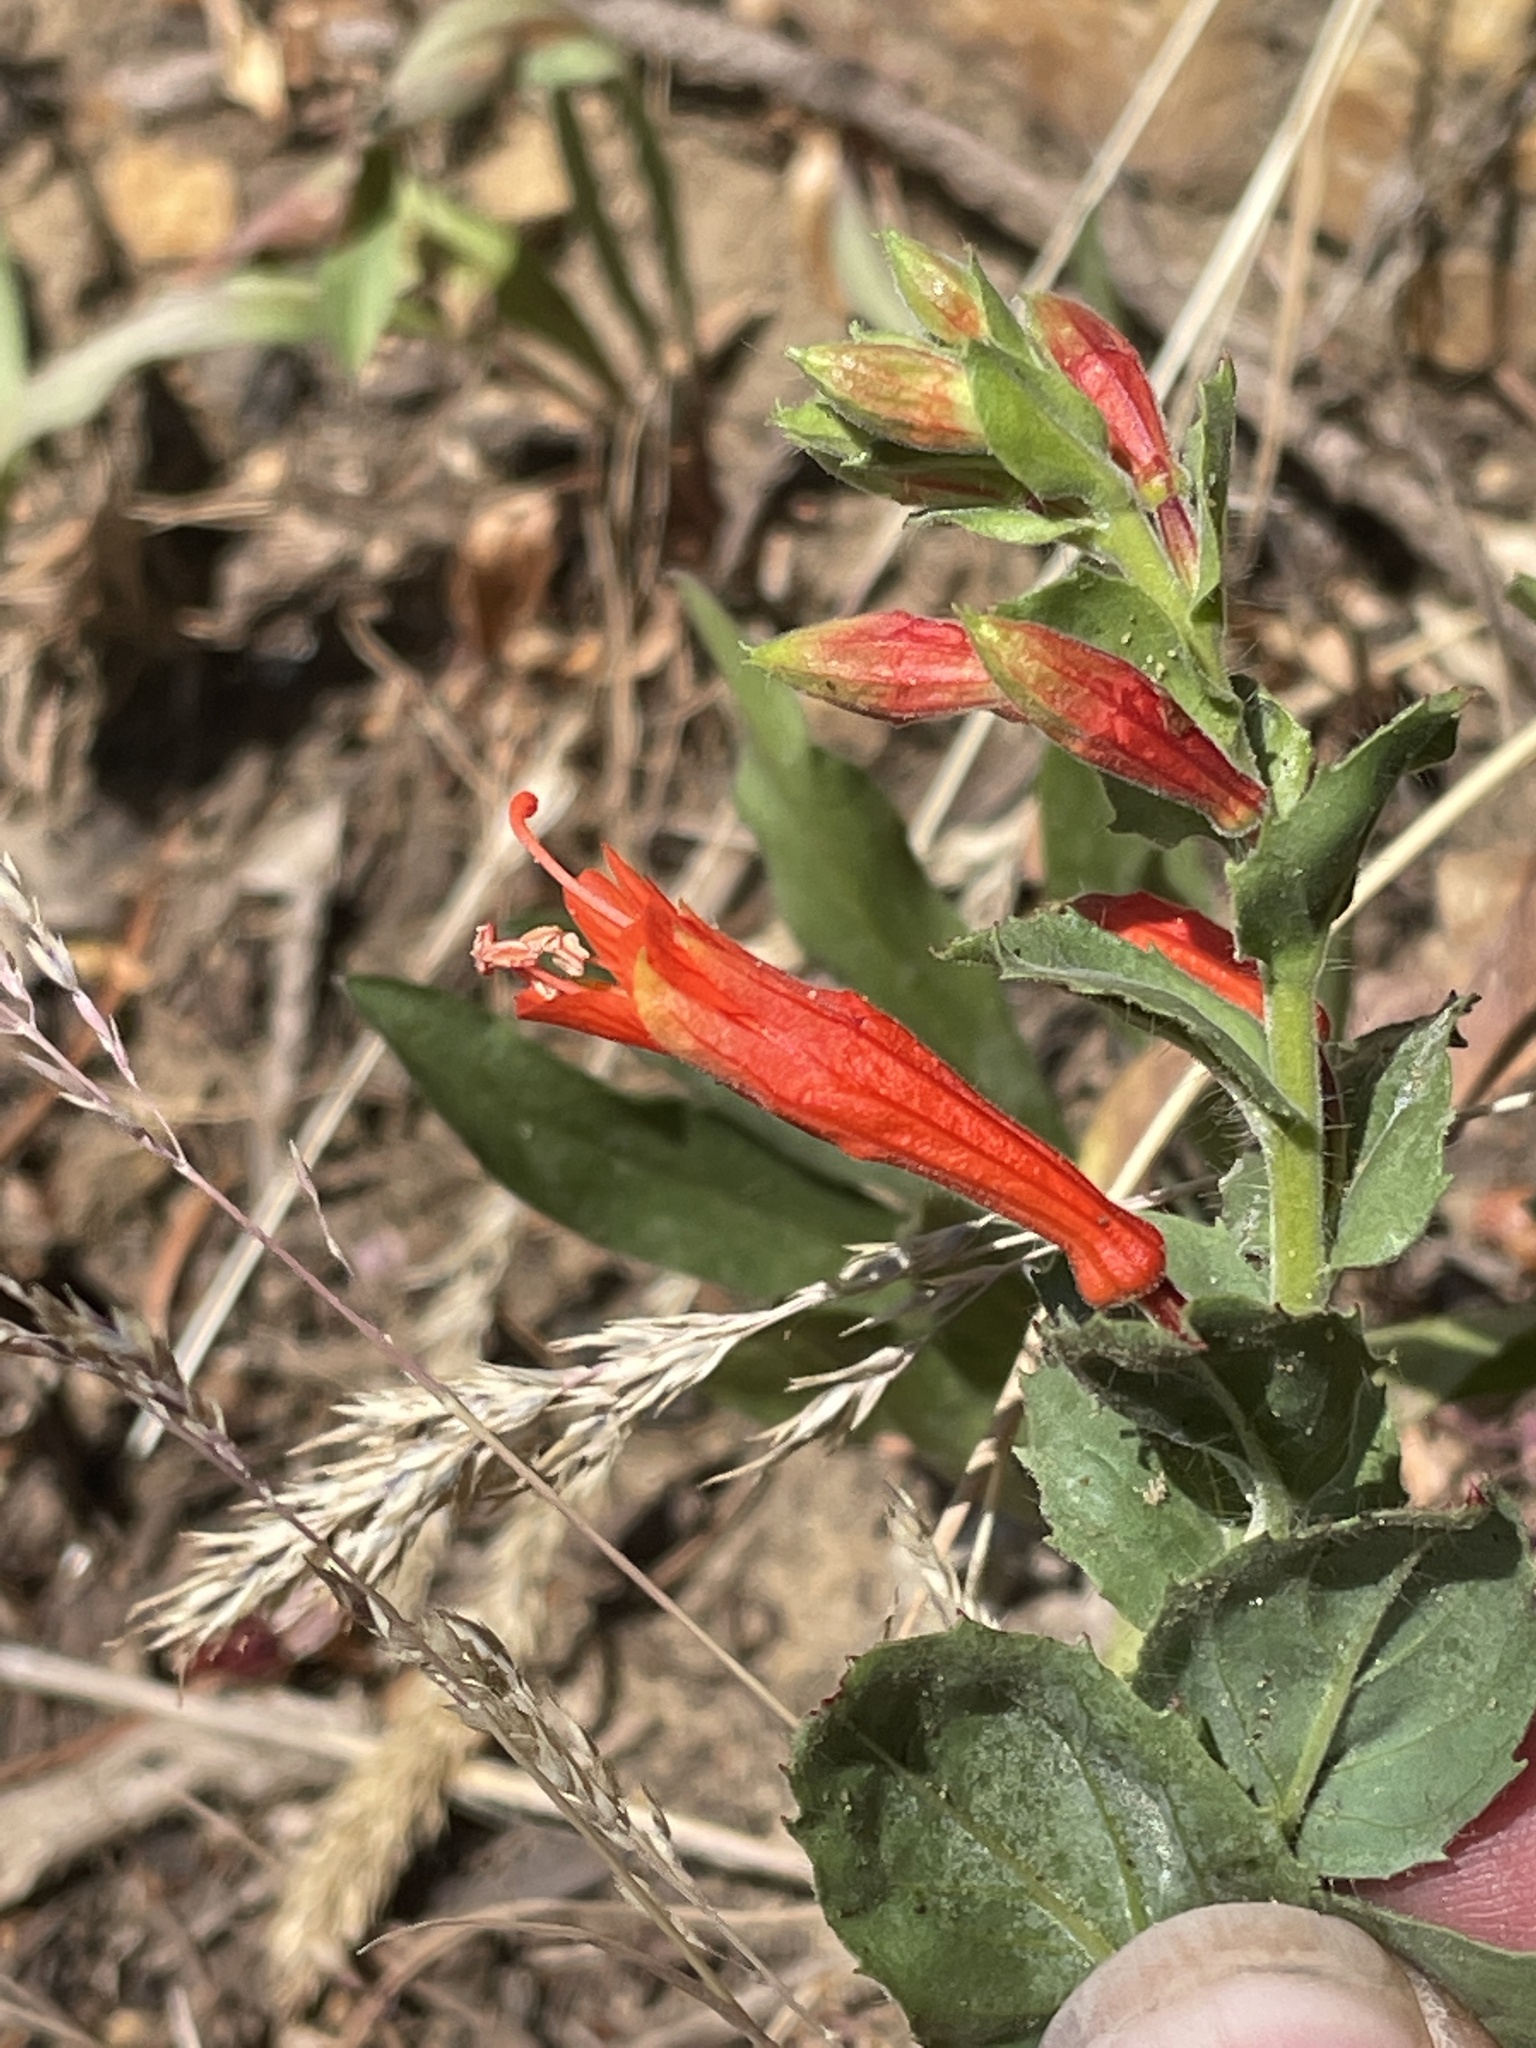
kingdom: Plantae
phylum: Tracheophyta
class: Magnoliopsida
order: Myrtales
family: Onagraceae
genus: Epilobium
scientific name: Epilobium canum
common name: California-fuchsia
